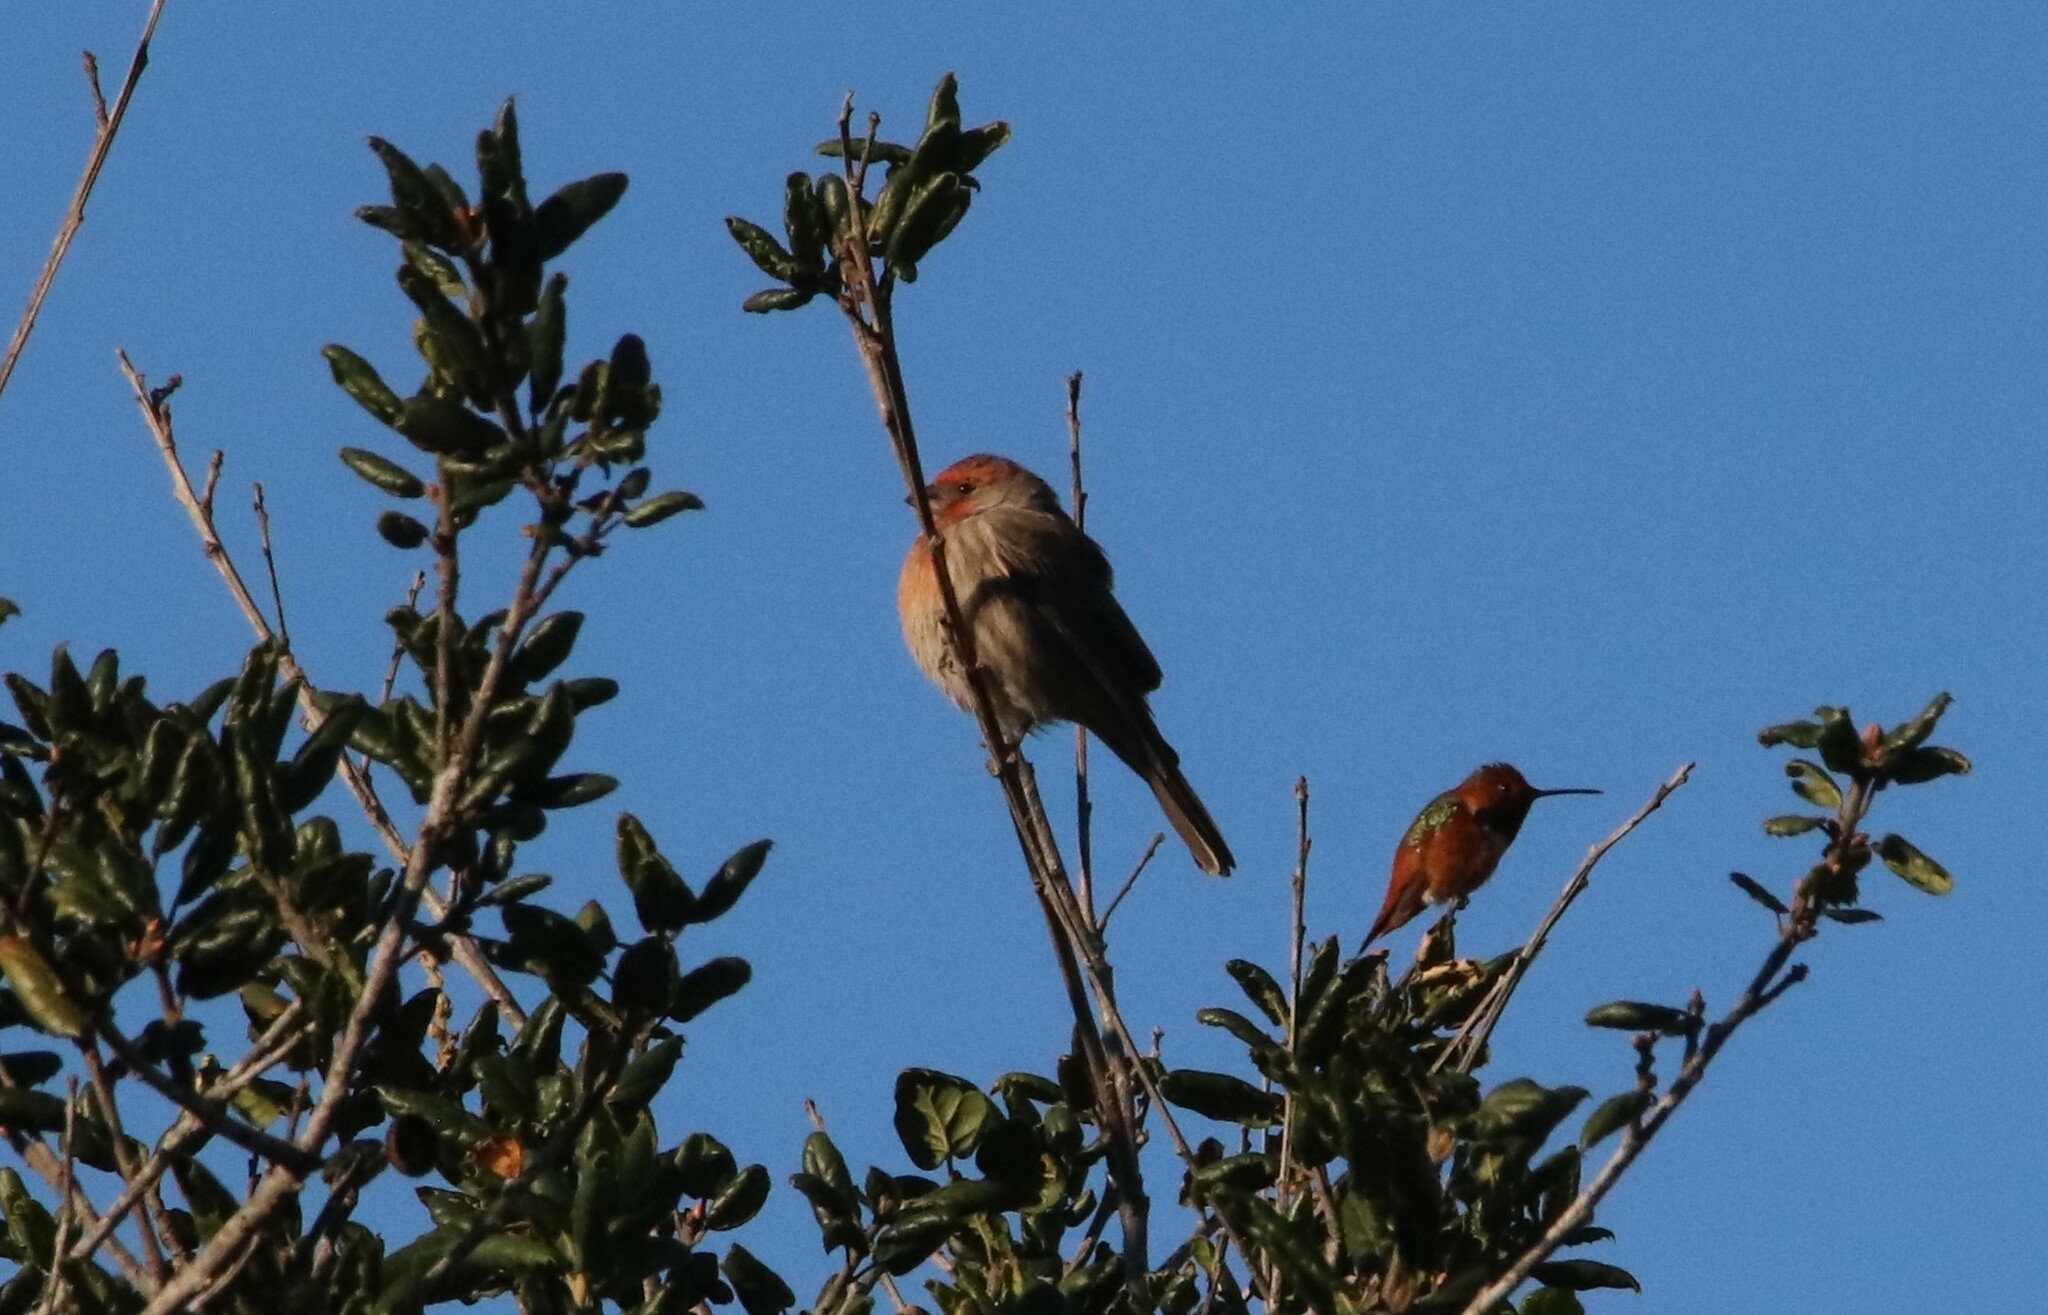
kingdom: Animalia
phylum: Chordata
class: Aves
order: Passeriformes
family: Fringillidae
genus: Haemorhous
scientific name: Haemorhous mexicanus
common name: House finch
